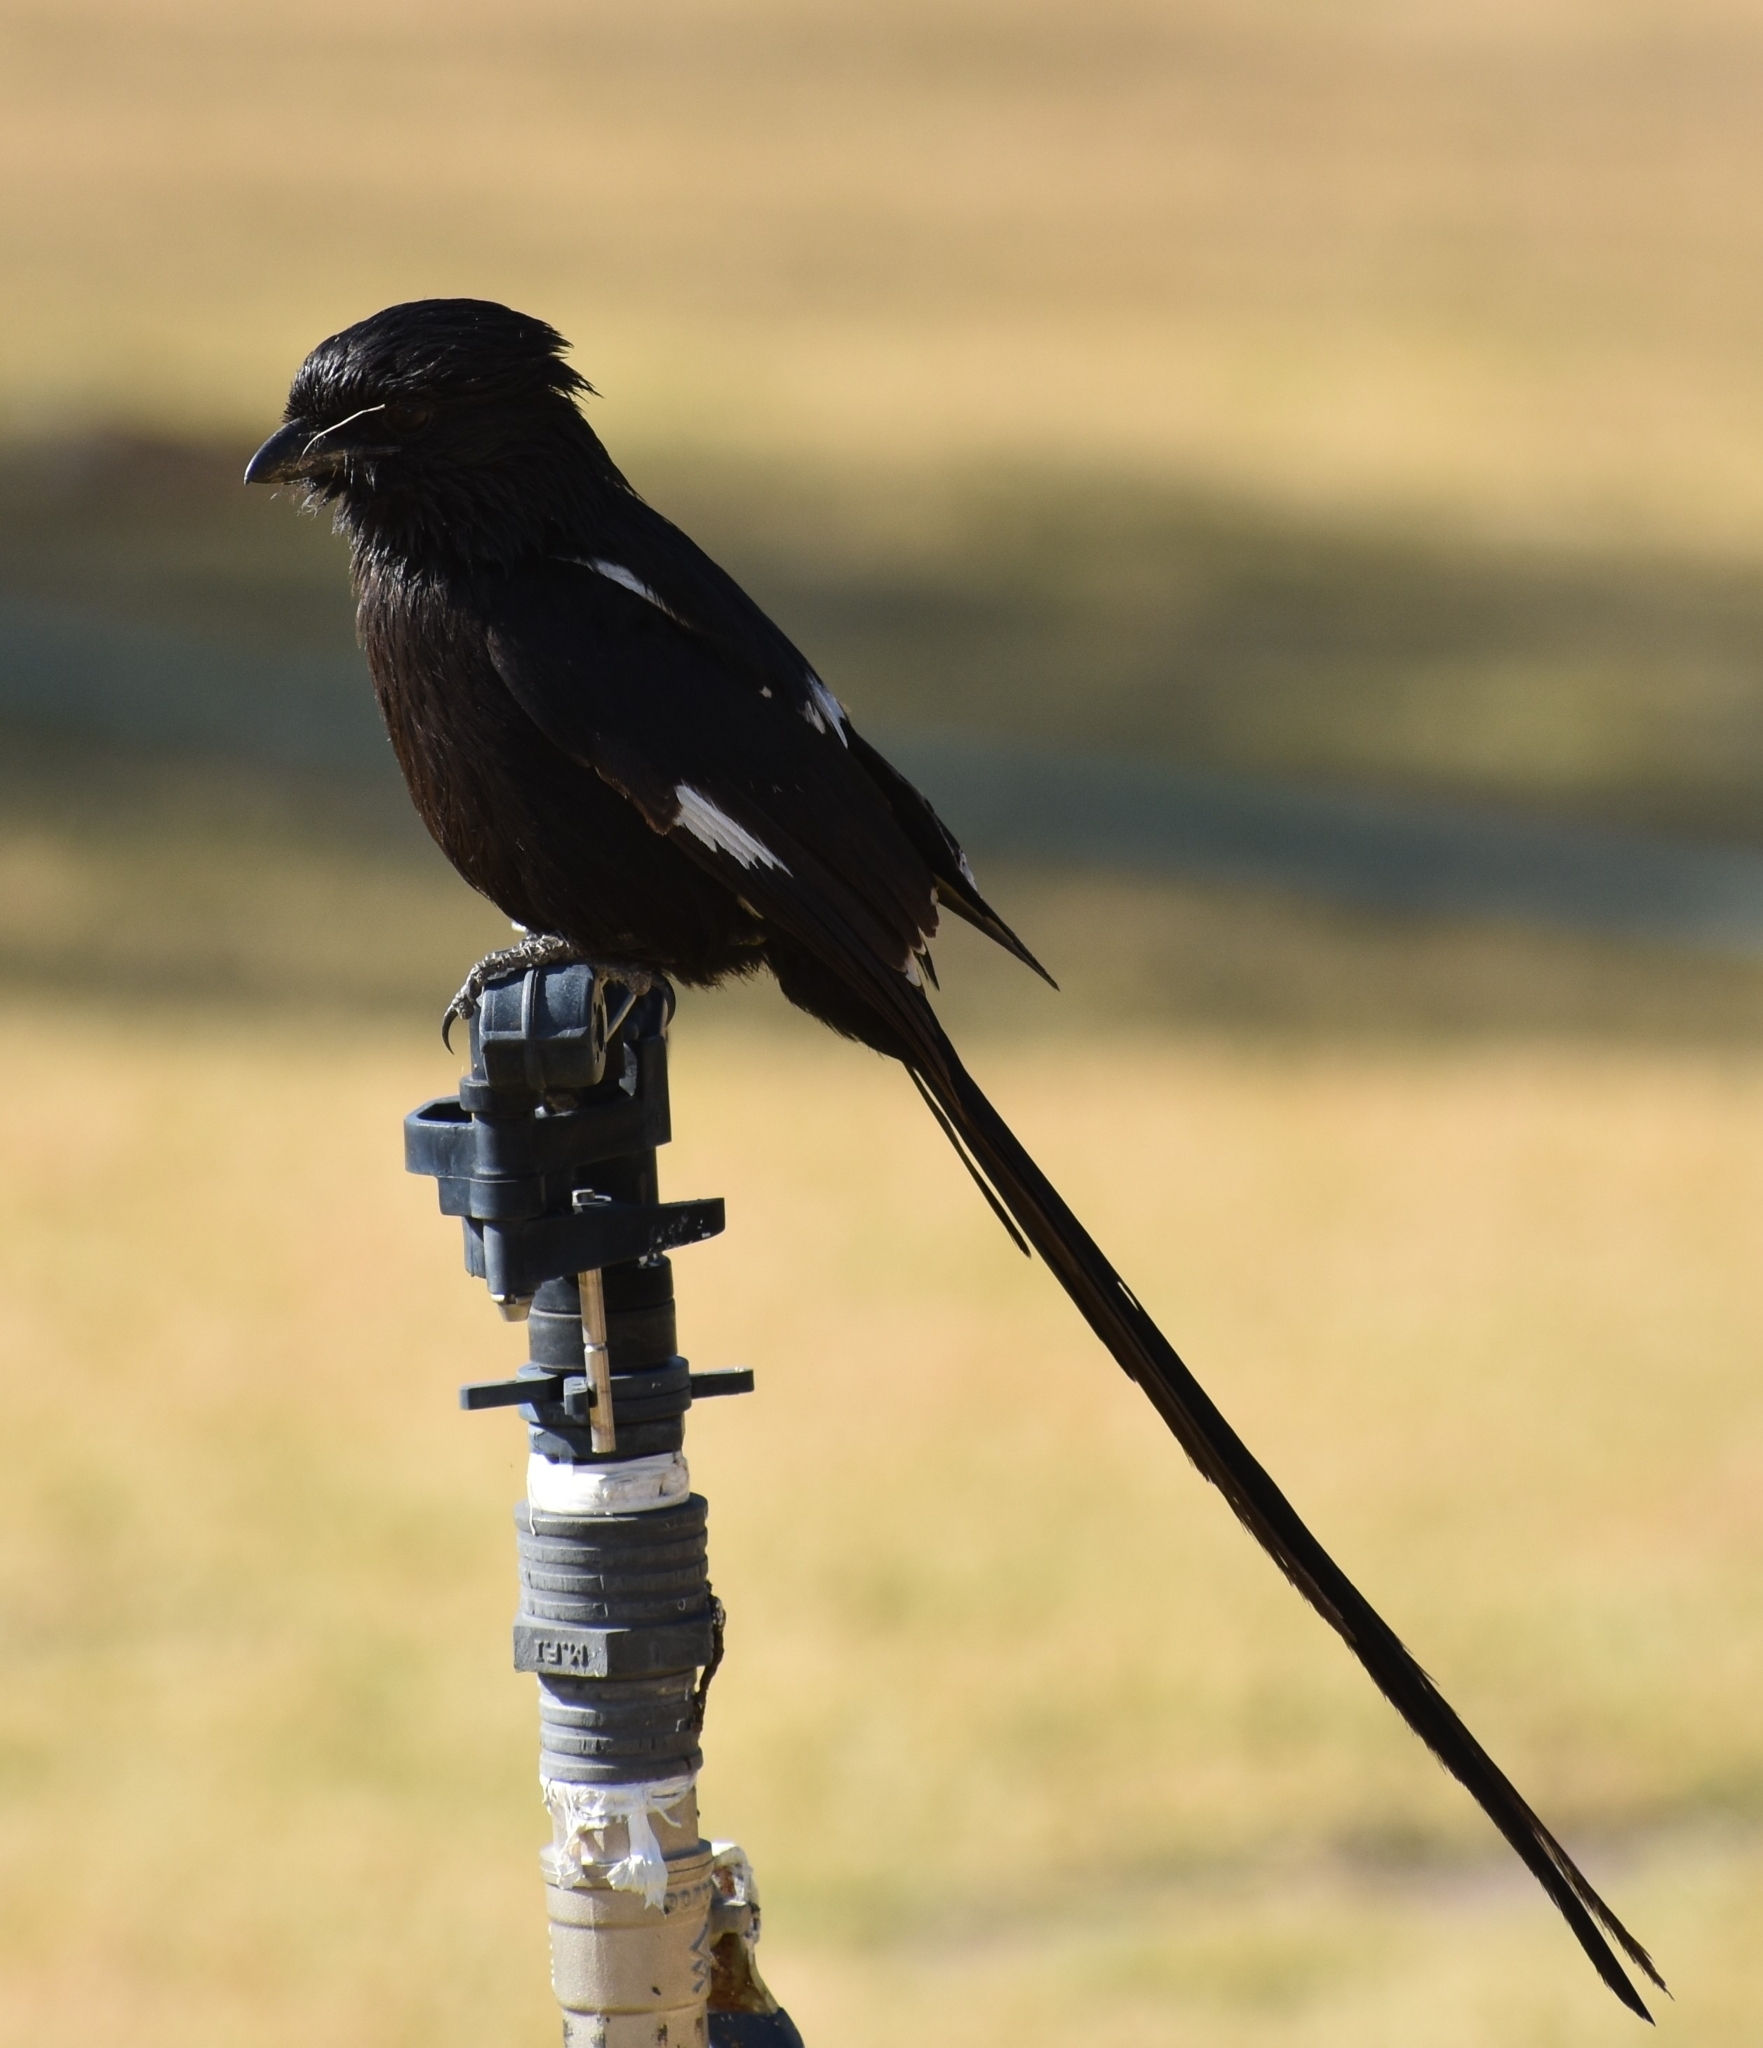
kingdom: Animalia
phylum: Chordata
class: Aves
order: Passeriformes
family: Laniidae
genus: Urolestes
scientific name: Urolestes melanoleucus
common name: Magpie shrike
